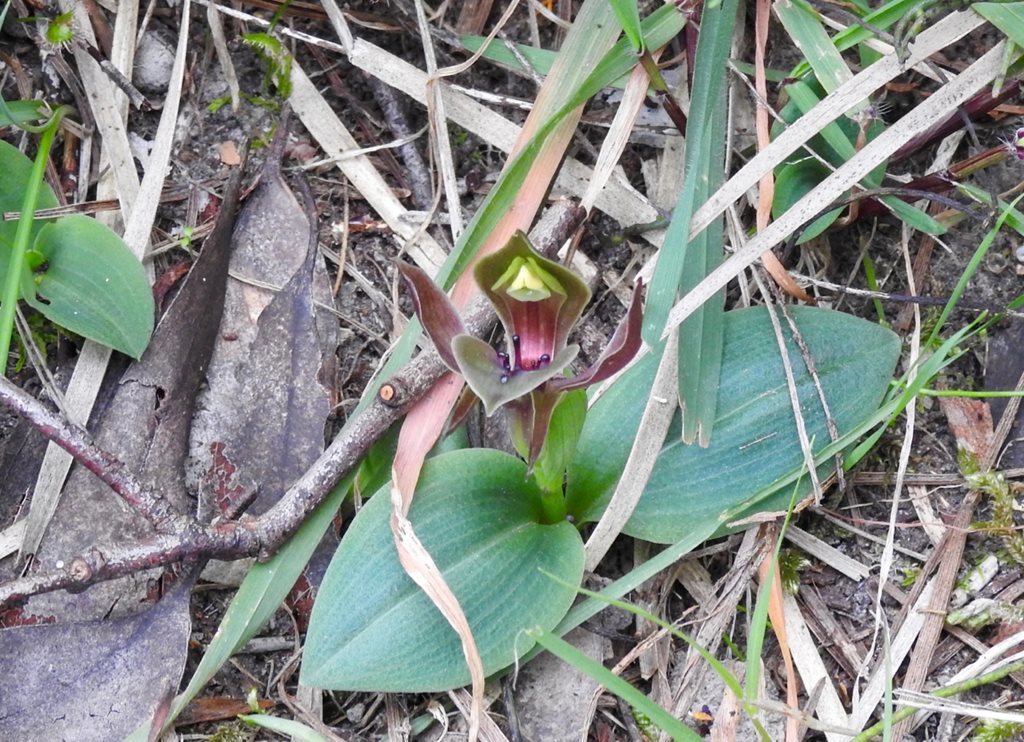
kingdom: Plantae
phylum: Tracheophyta
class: Liliopsida
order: Asparagales
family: Orchidaceae
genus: Chiloglottis
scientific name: Chiloglottis valida
